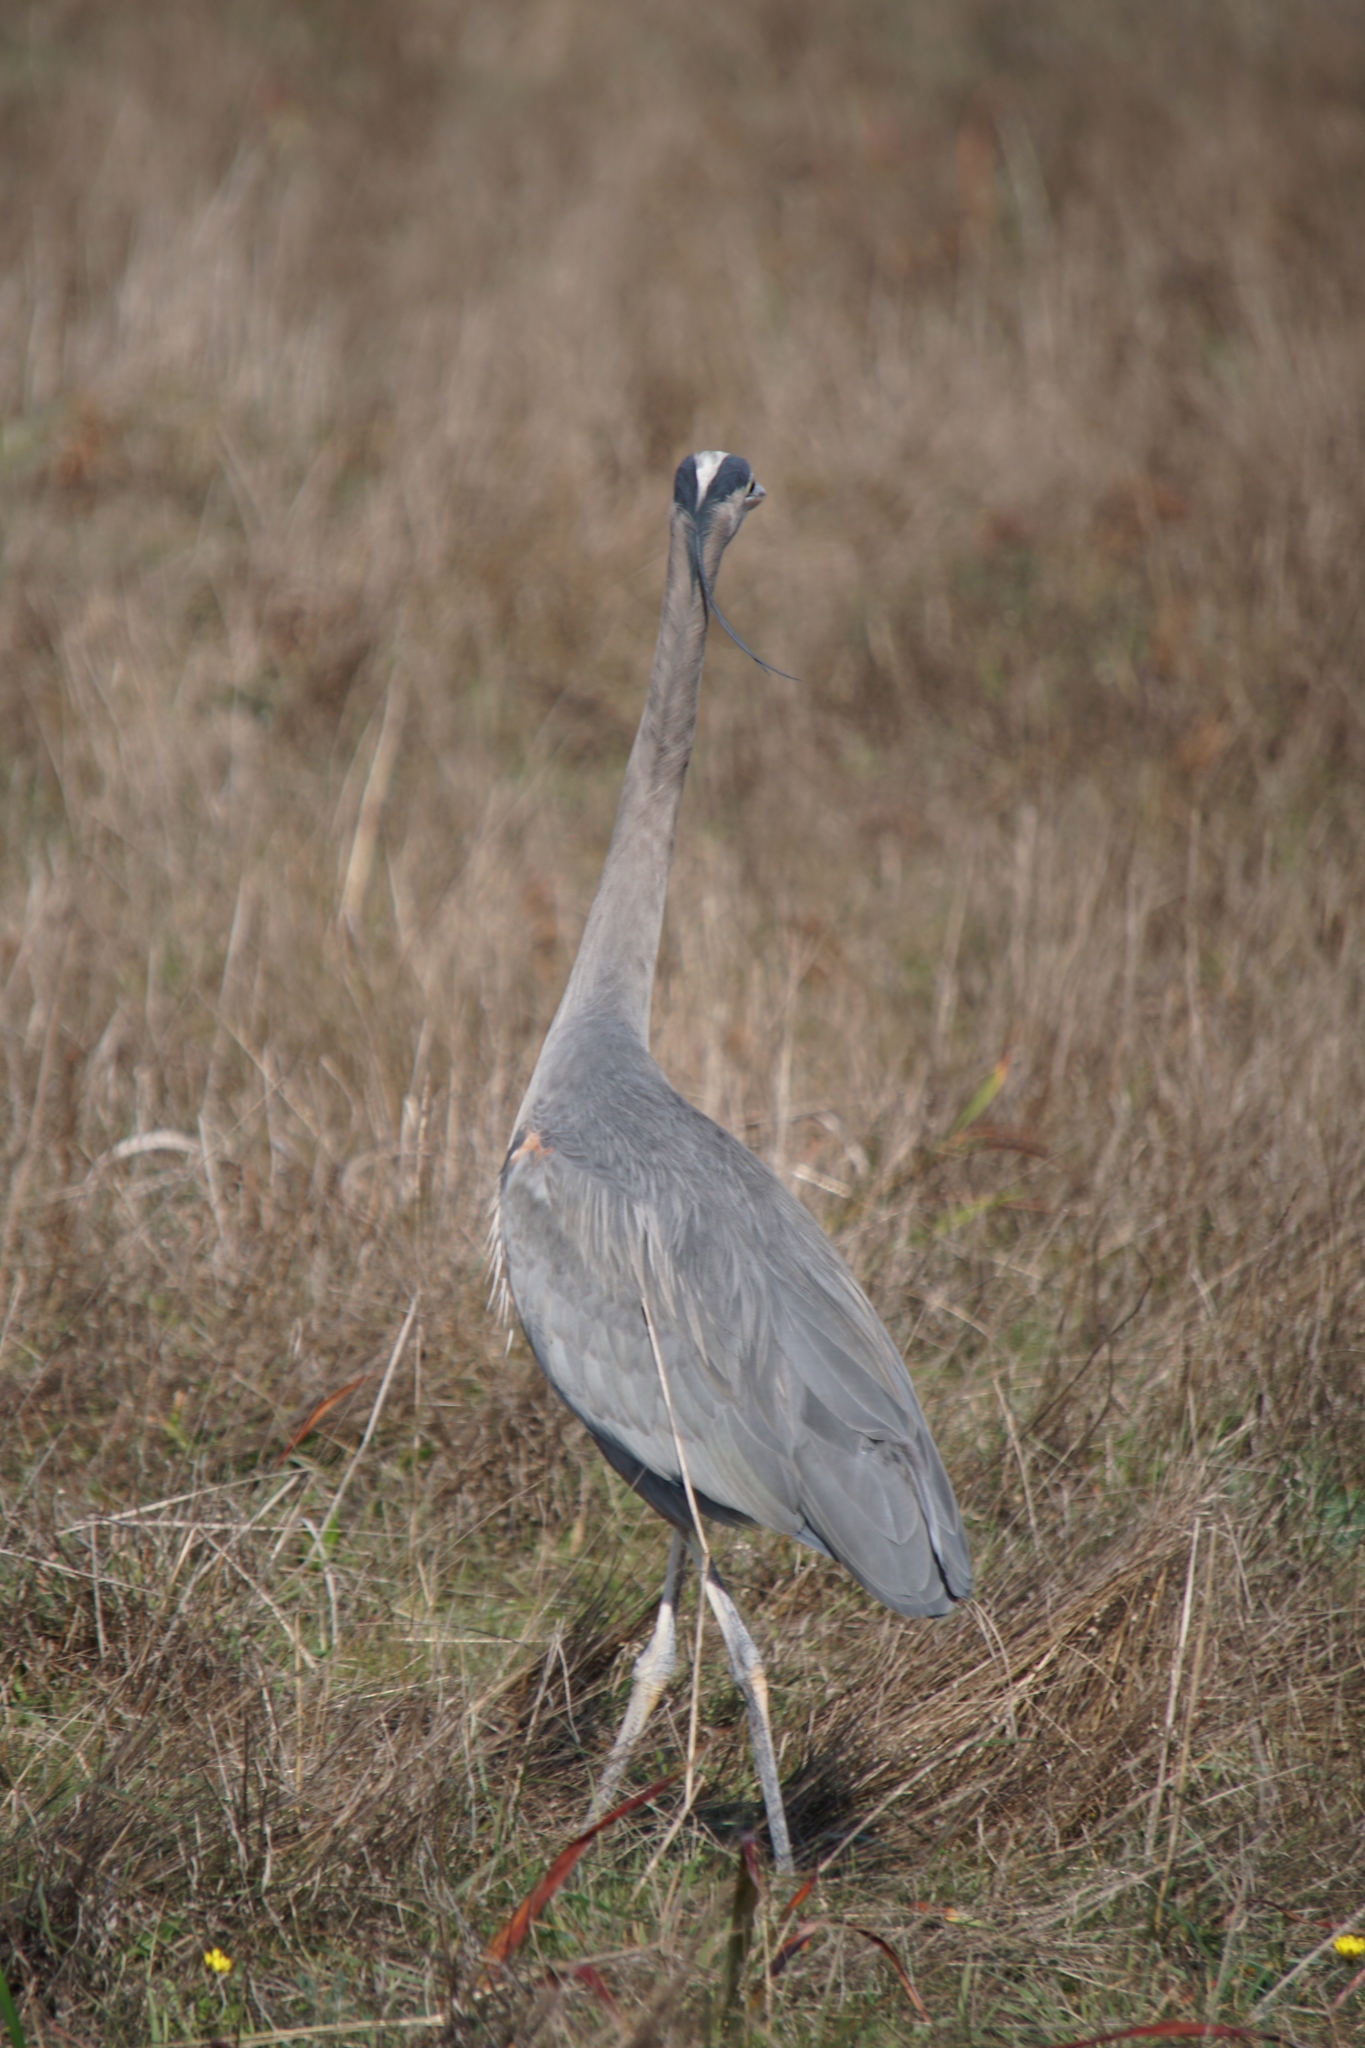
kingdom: Animalia
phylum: Chordata
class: Aves
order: Pelecaniformes
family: Ardeidae
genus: Ardea
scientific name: Ardea herodias
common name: Great blue heron
